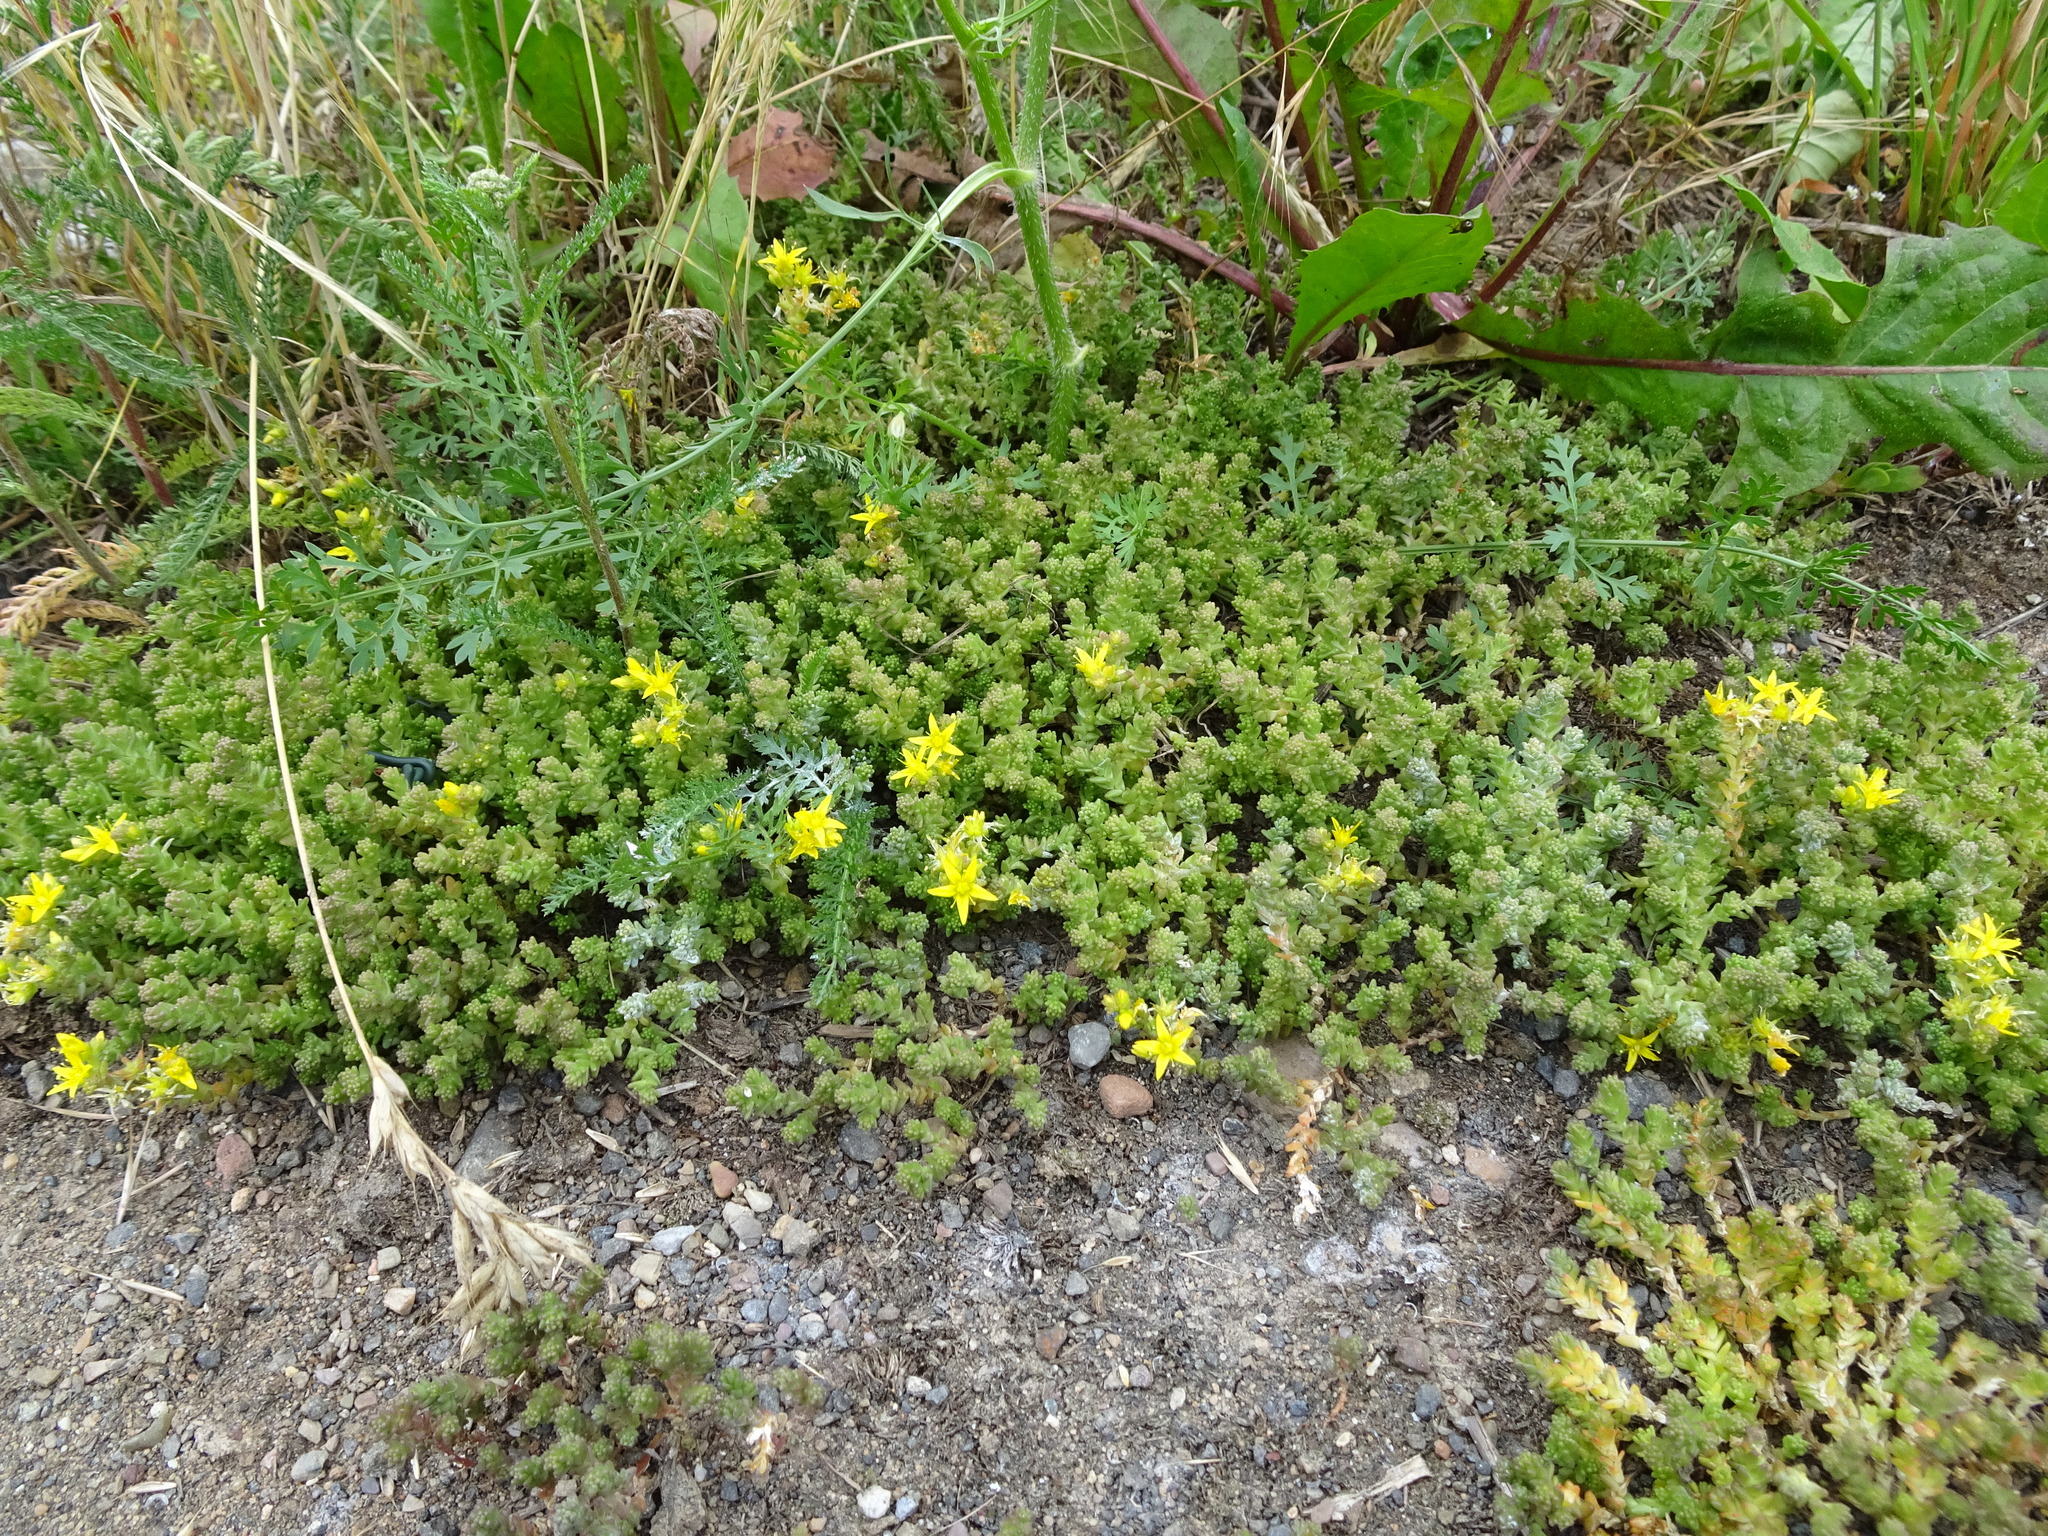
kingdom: Plantae
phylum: Tracheophyta
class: Magnoliopsida
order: Saxifragales
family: Crassulaceae
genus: Sedum
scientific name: Sedum acre
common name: Biting stonecrop
